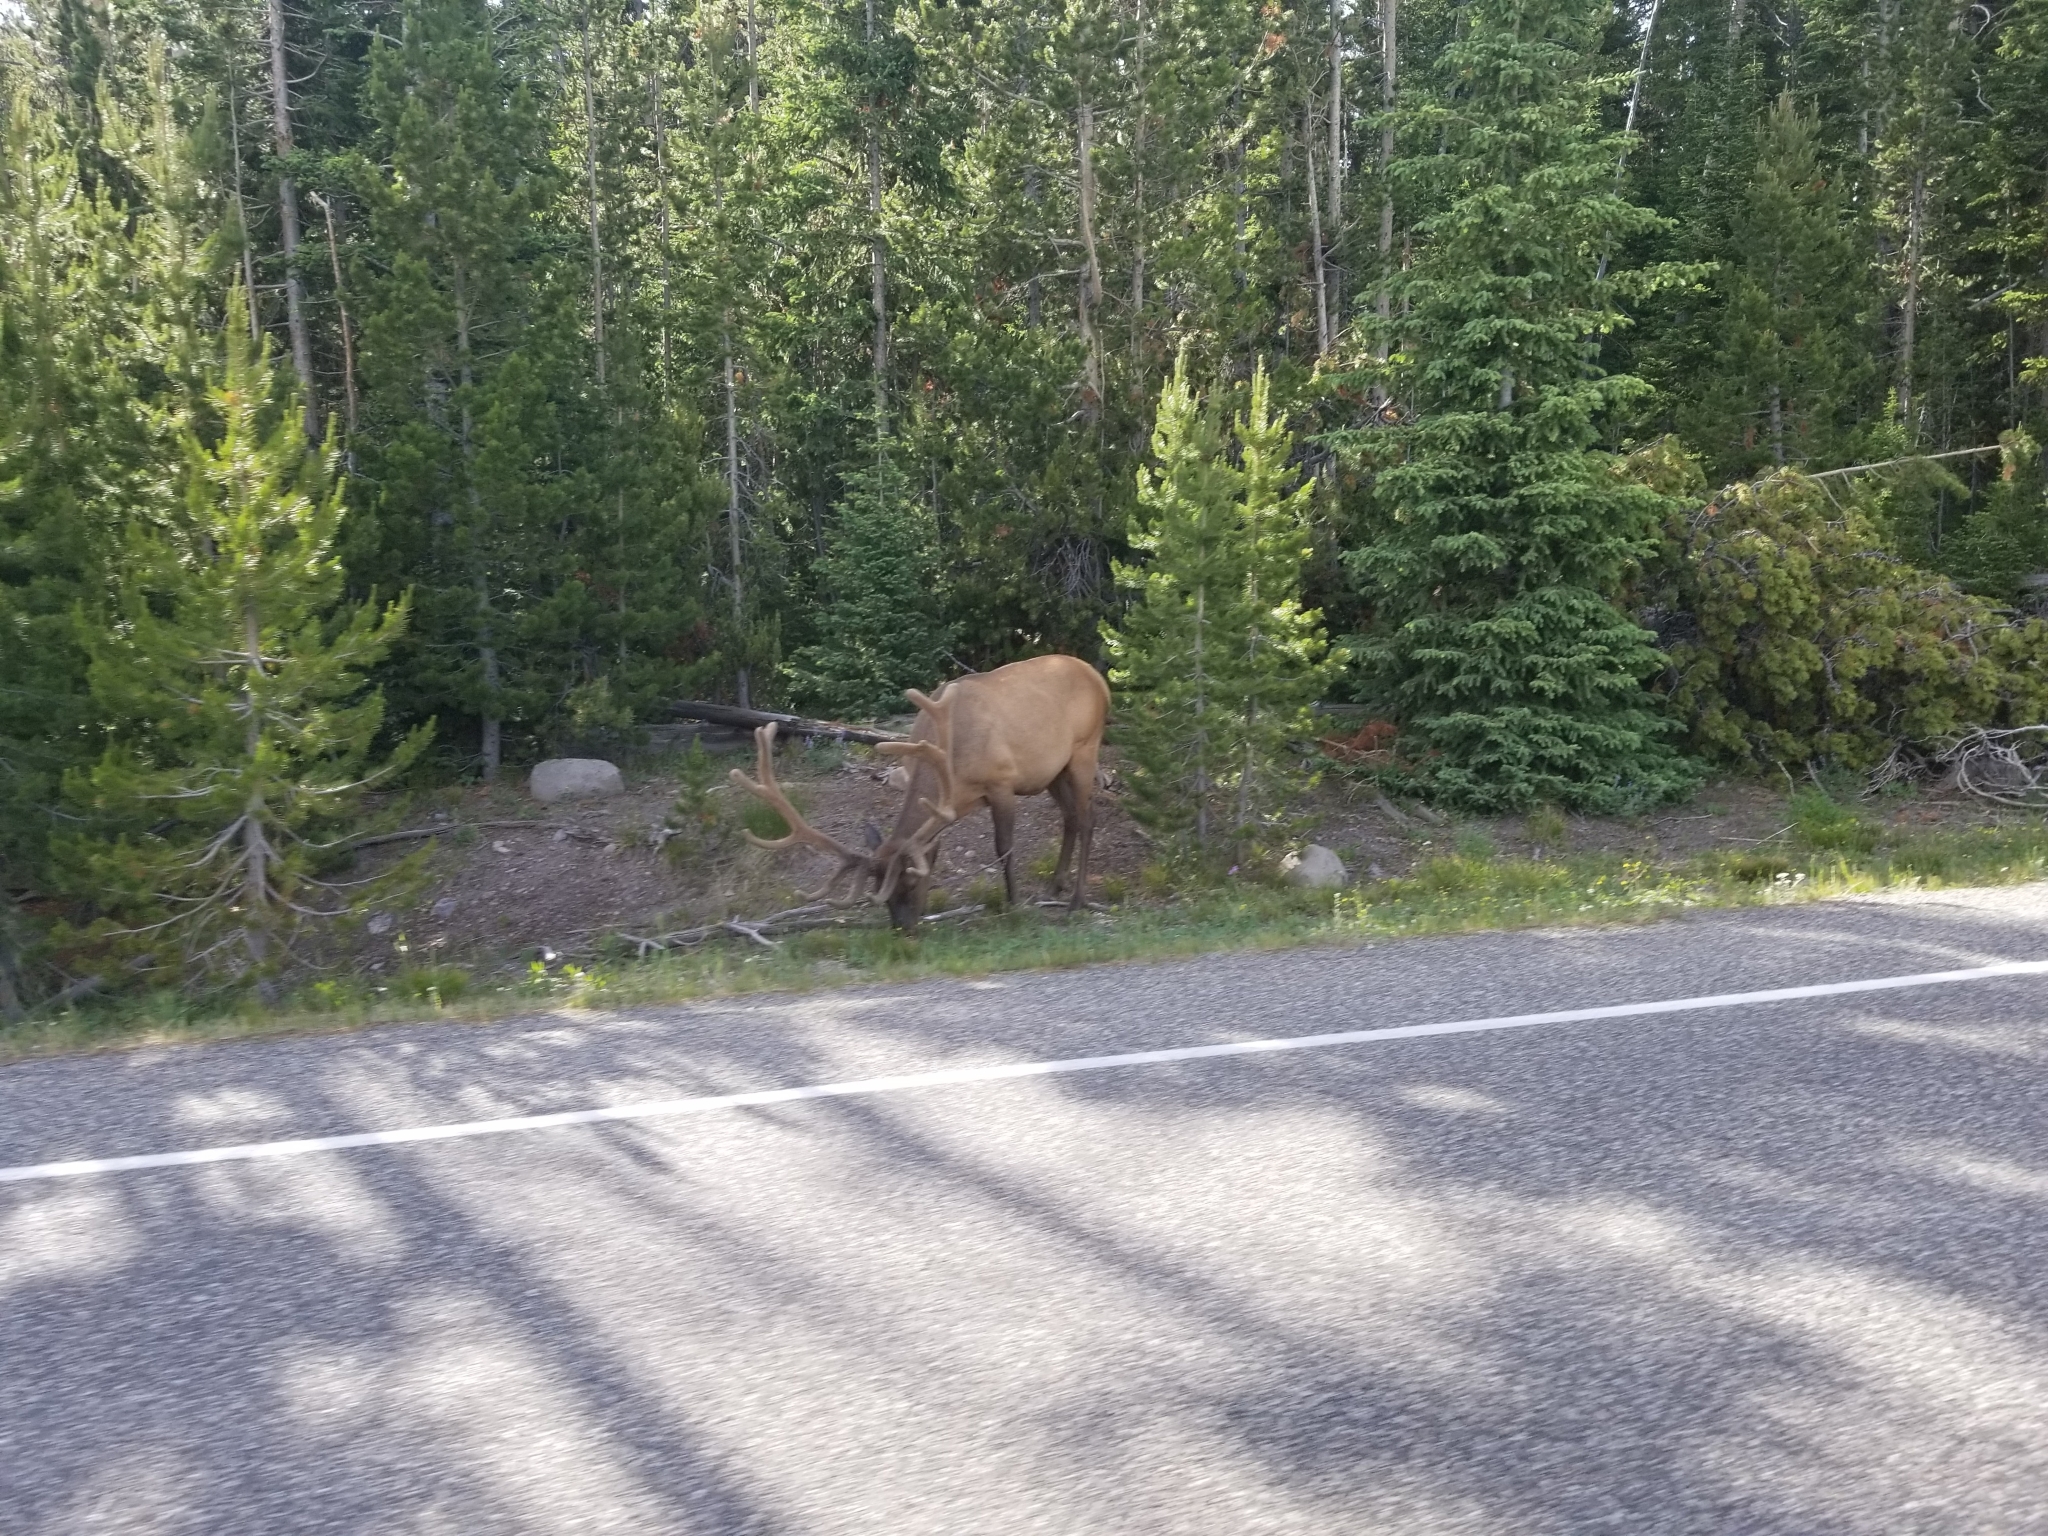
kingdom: Animalia
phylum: Chordata
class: Mammalia
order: Artiodactyla
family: Cervidae
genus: Cervus
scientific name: Cervus elaphus
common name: Red deer
